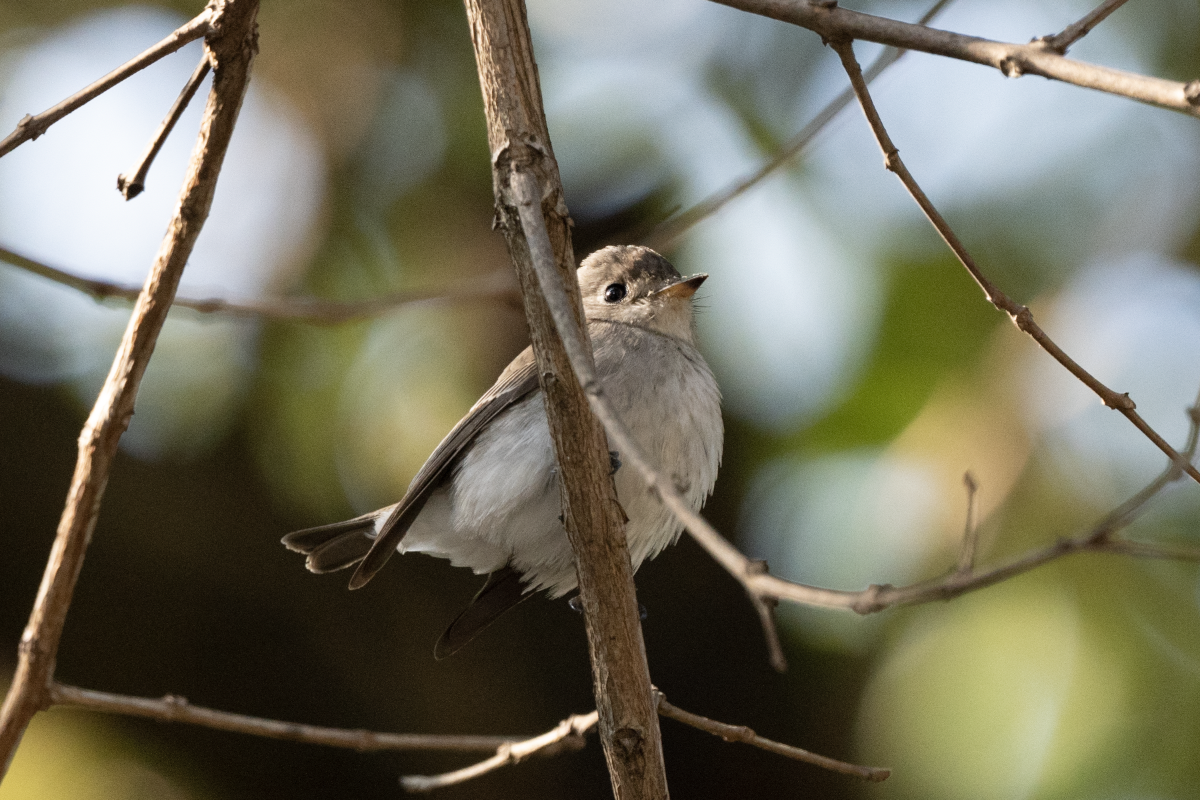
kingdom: Animalia
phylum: Chordata
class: Aves
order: Passeriformes
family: Muscicapidae
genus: Muscicapa
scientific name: Muscicapa latirostris
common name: Asian brown flycatcher
